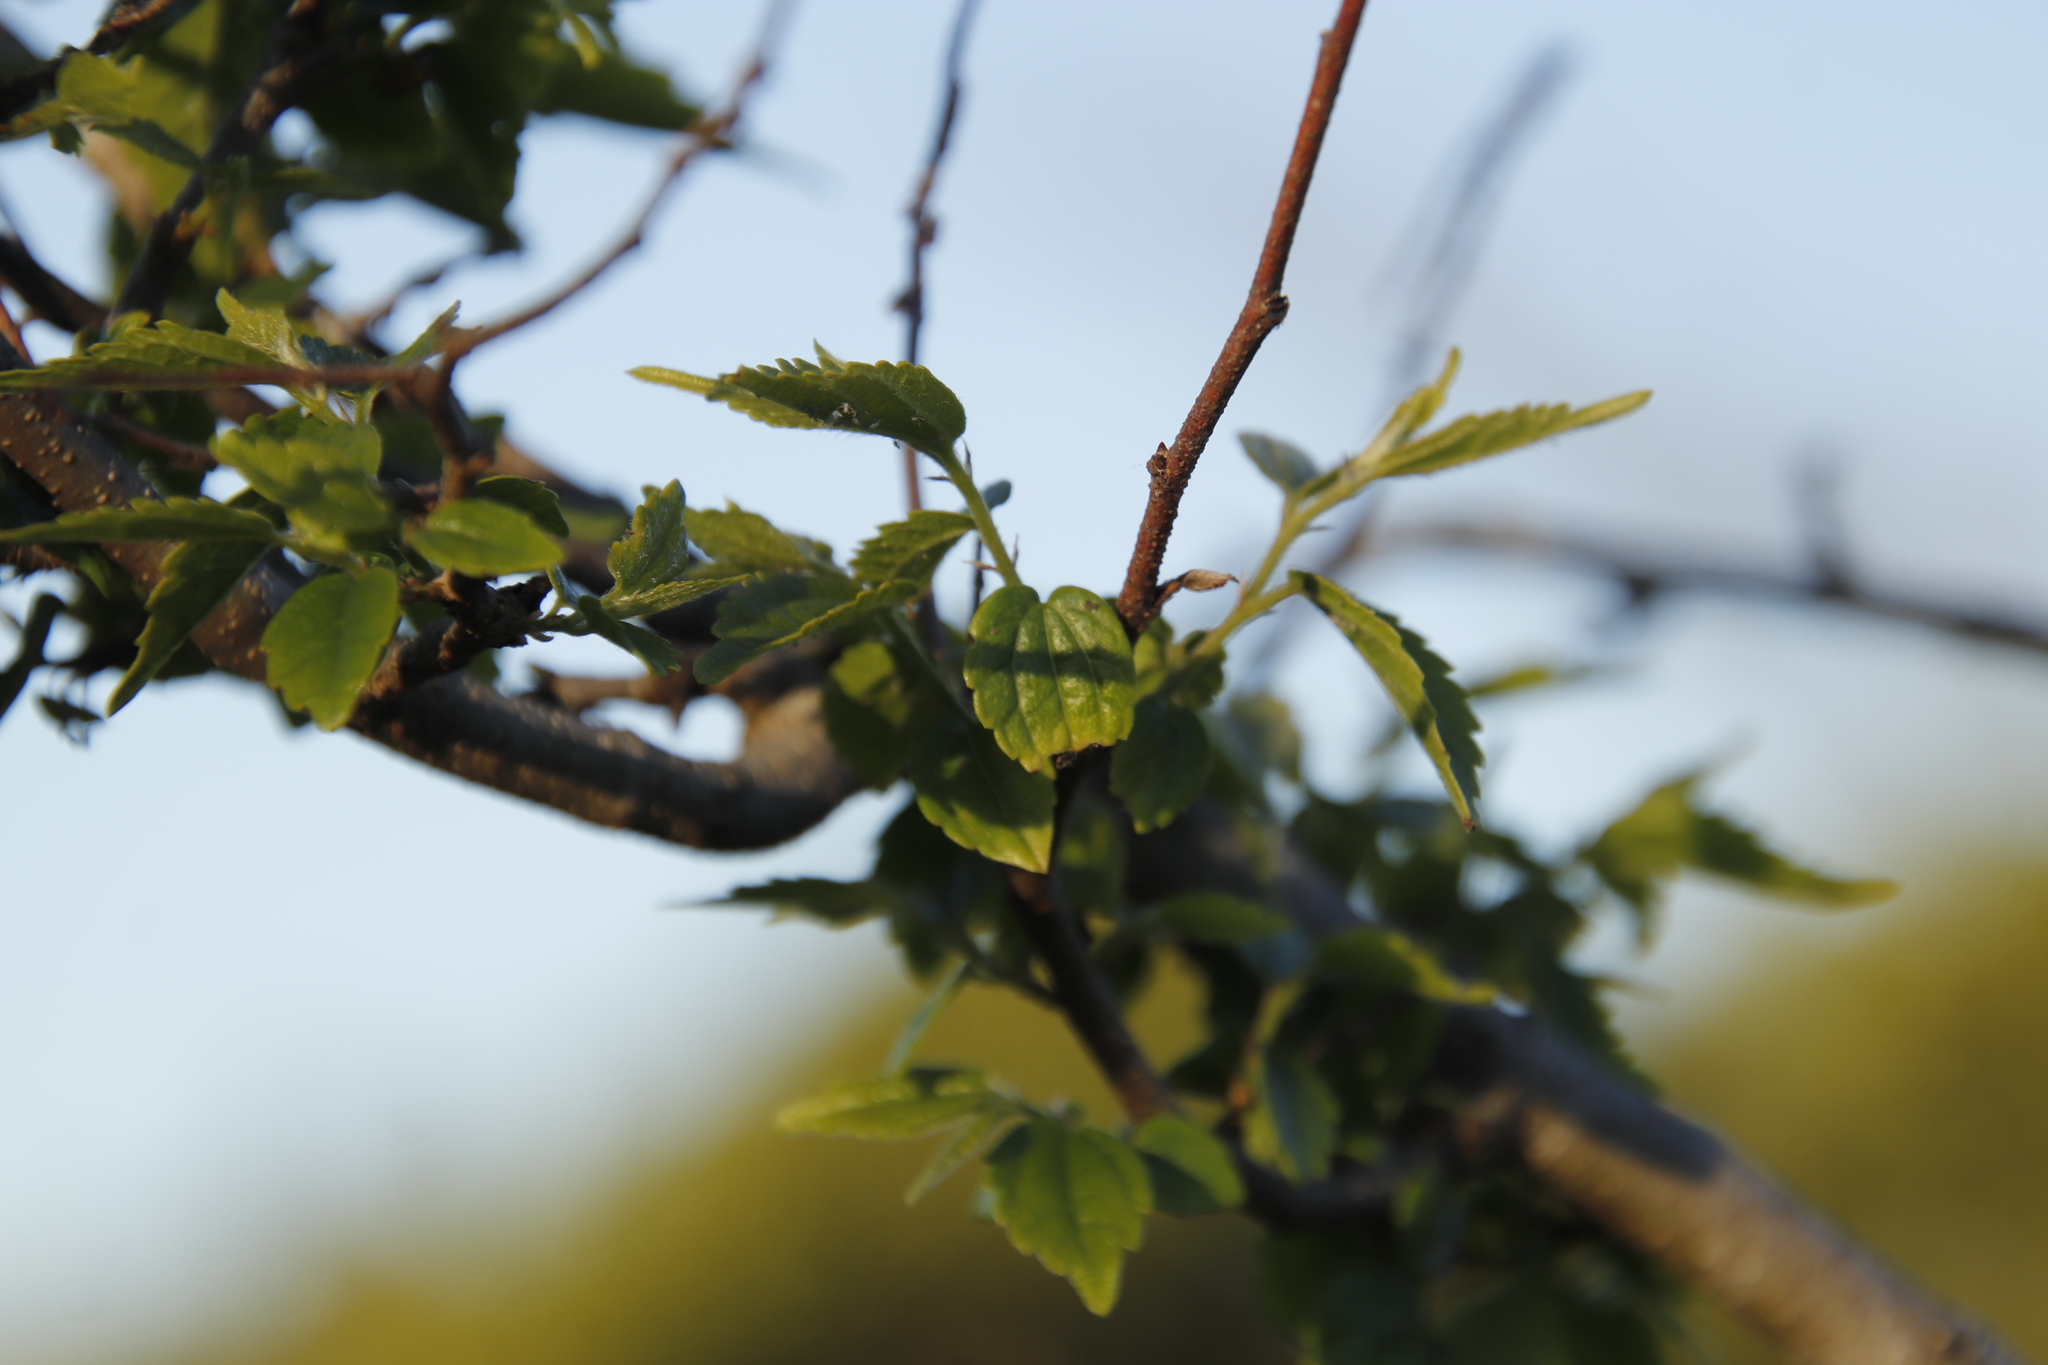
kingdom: Plantae
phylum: Tracheophyta
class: Magnoliopsida
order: Rosales
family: Cannabaceae
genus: Celtis
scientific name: Celtis africana
